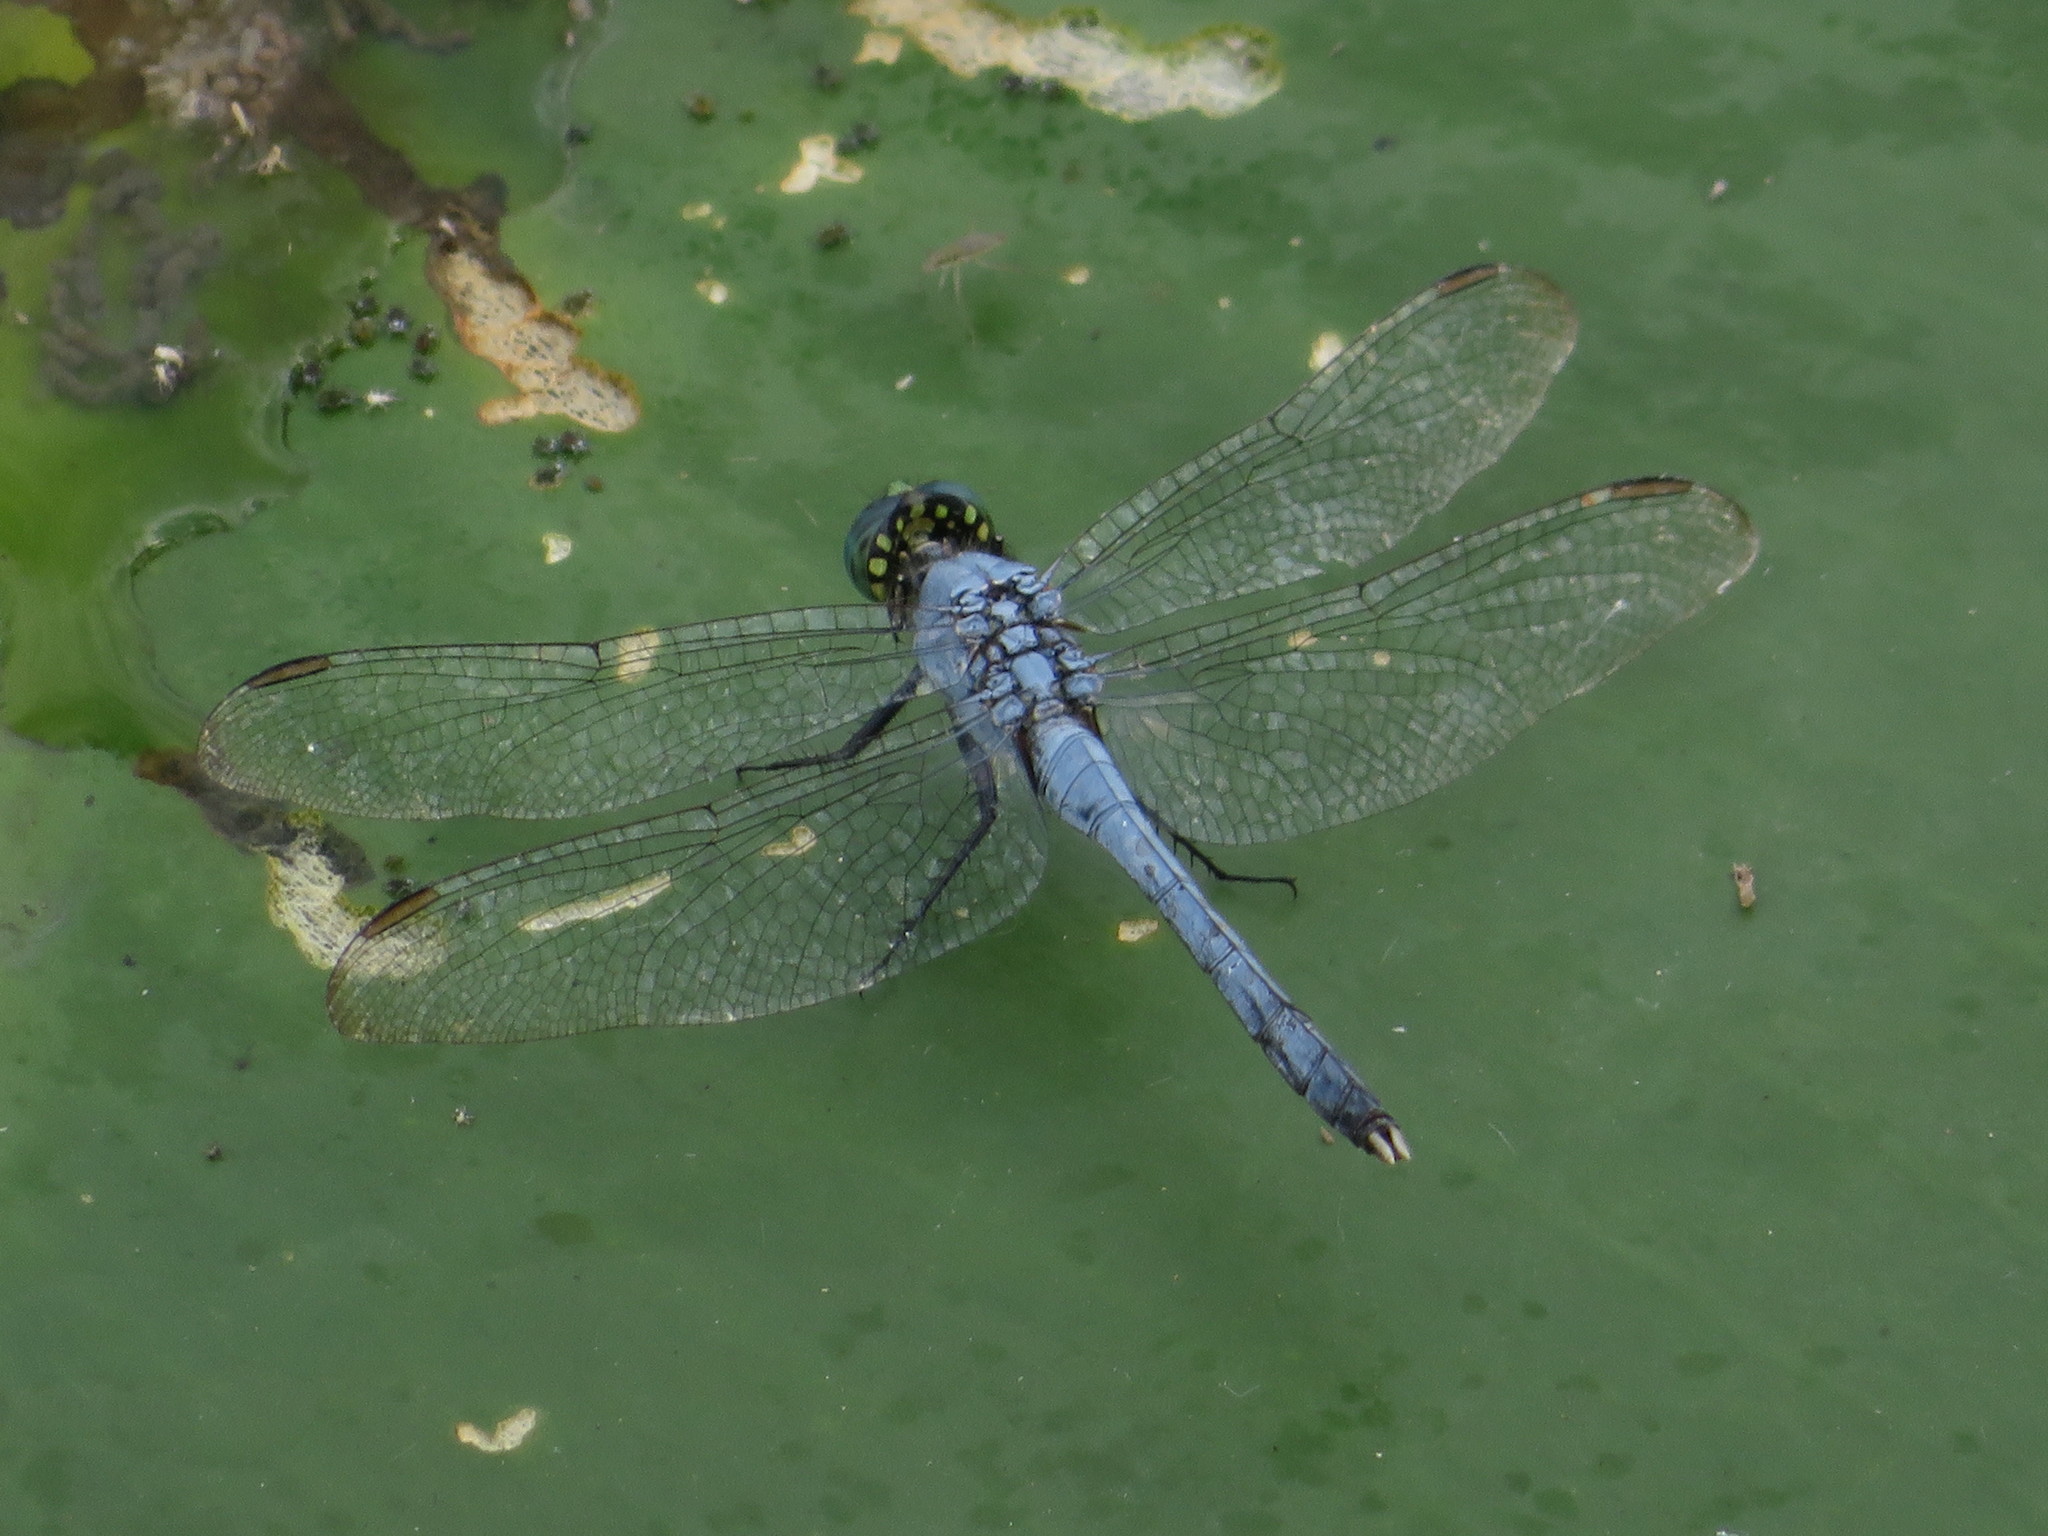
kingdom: Animalia
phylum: Arthropoda
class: Insecta
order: Odonata
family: Libellulidae
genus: Erythemis
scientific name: Erythemis simplicicollis
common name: Eastern pondhawk
